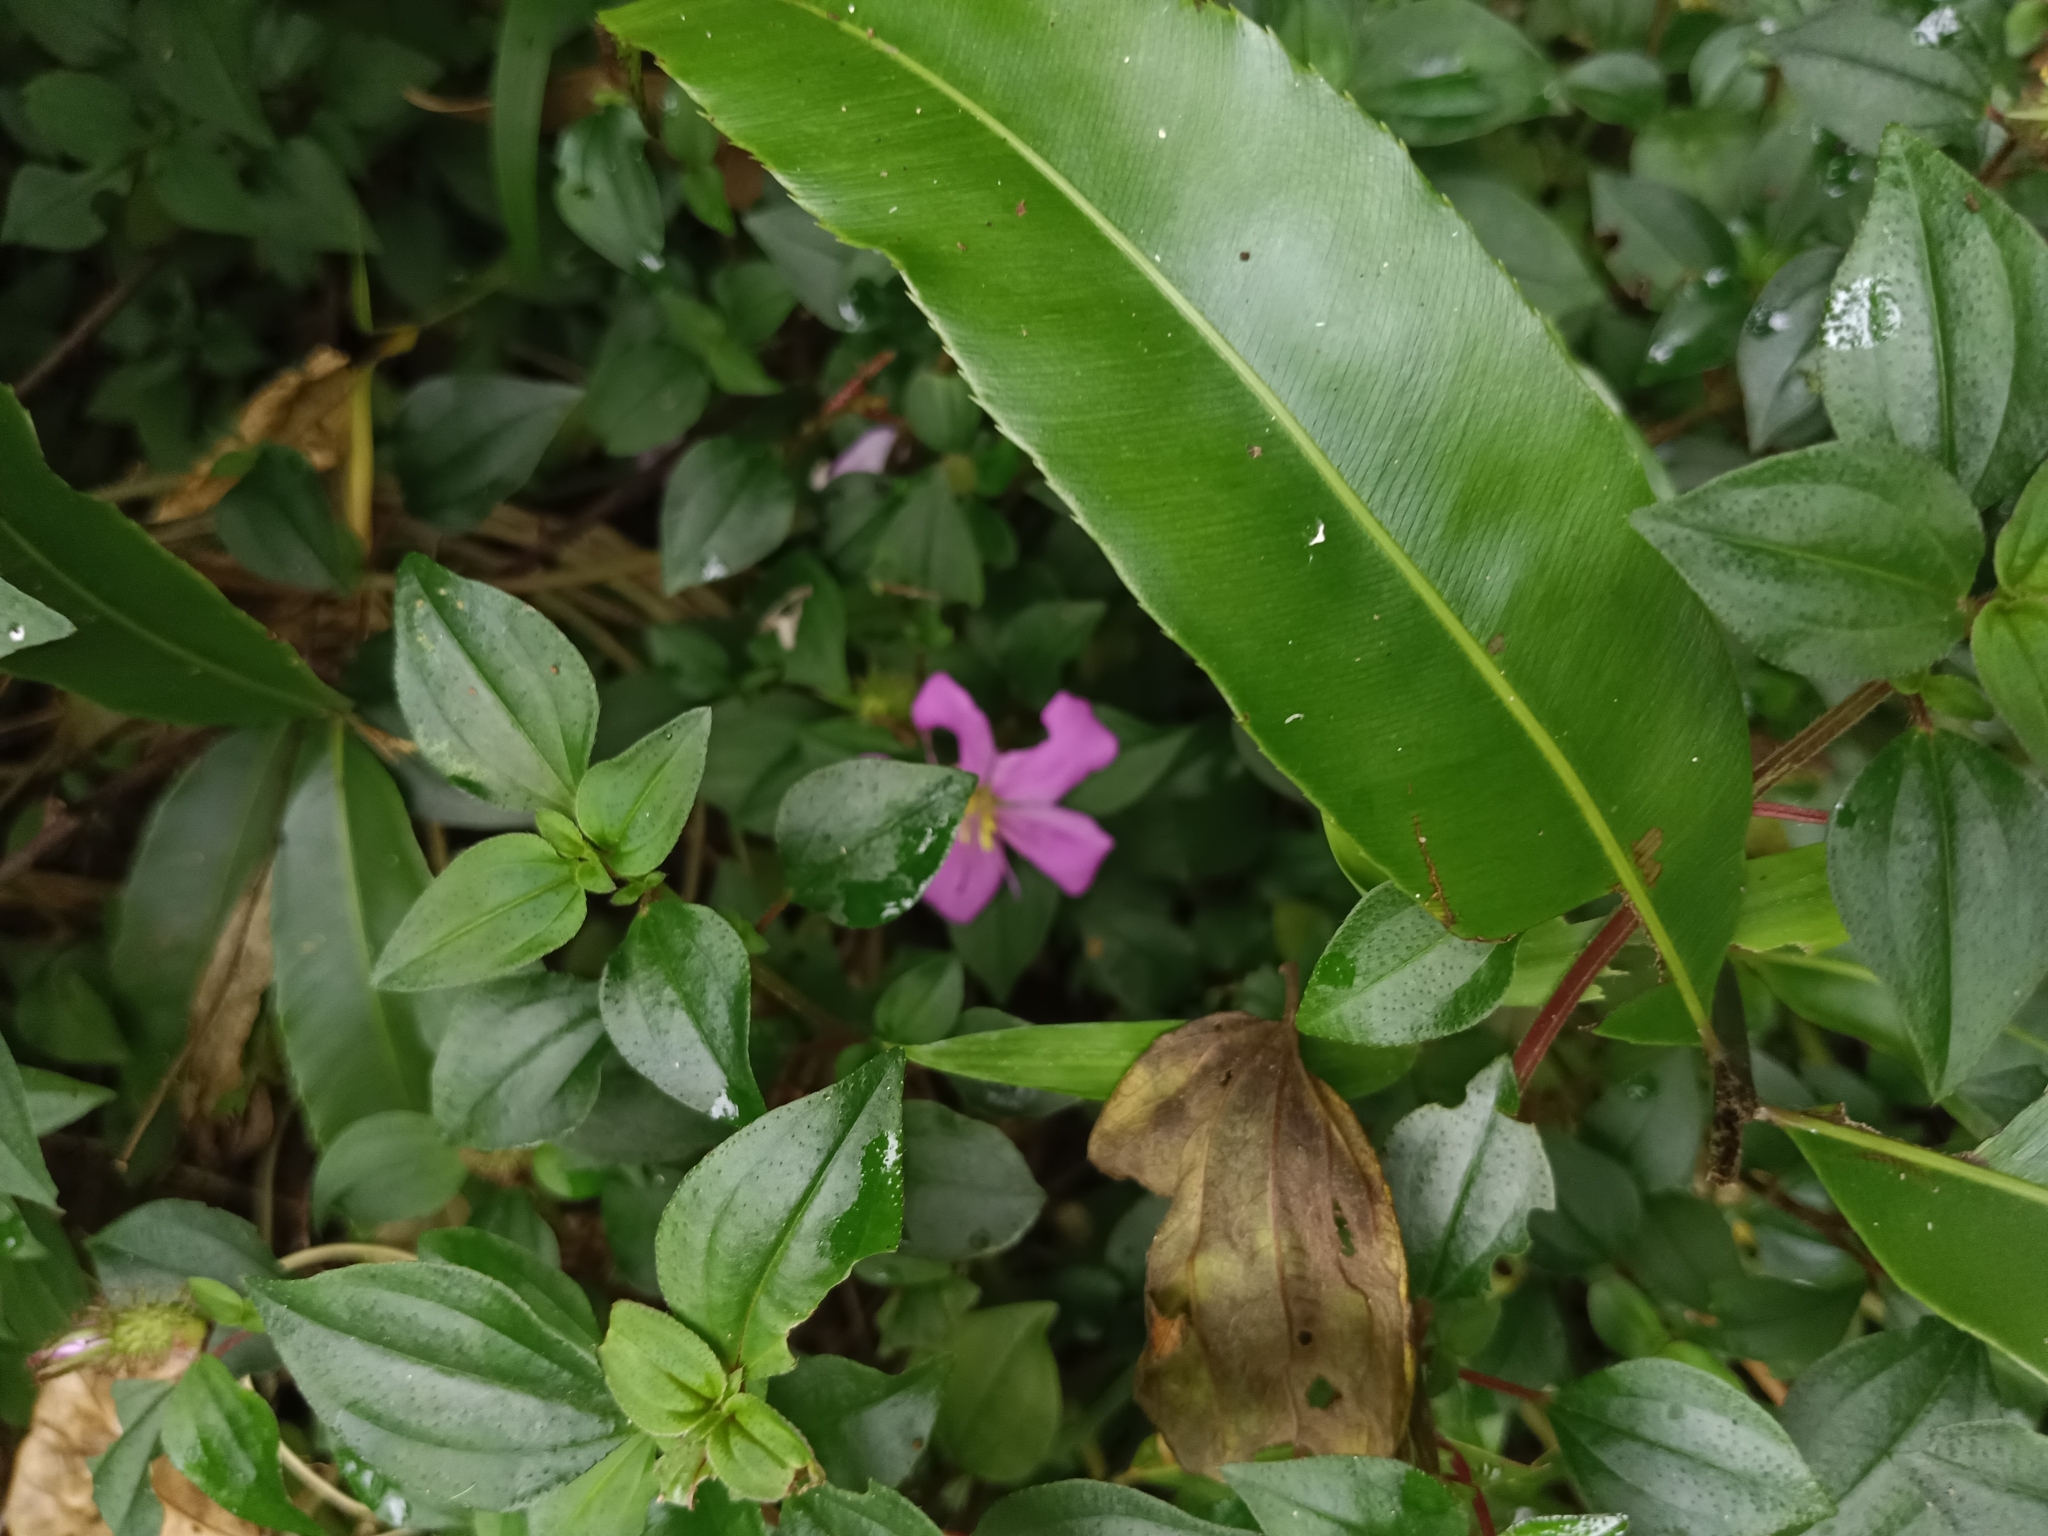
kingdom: Plantae
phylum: Tracheophyta
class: Magnoliopsida
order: Myrtales
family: Melastomataceae
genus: Heterotis
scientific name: Heterotis rotundifolia
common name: Pinklady
